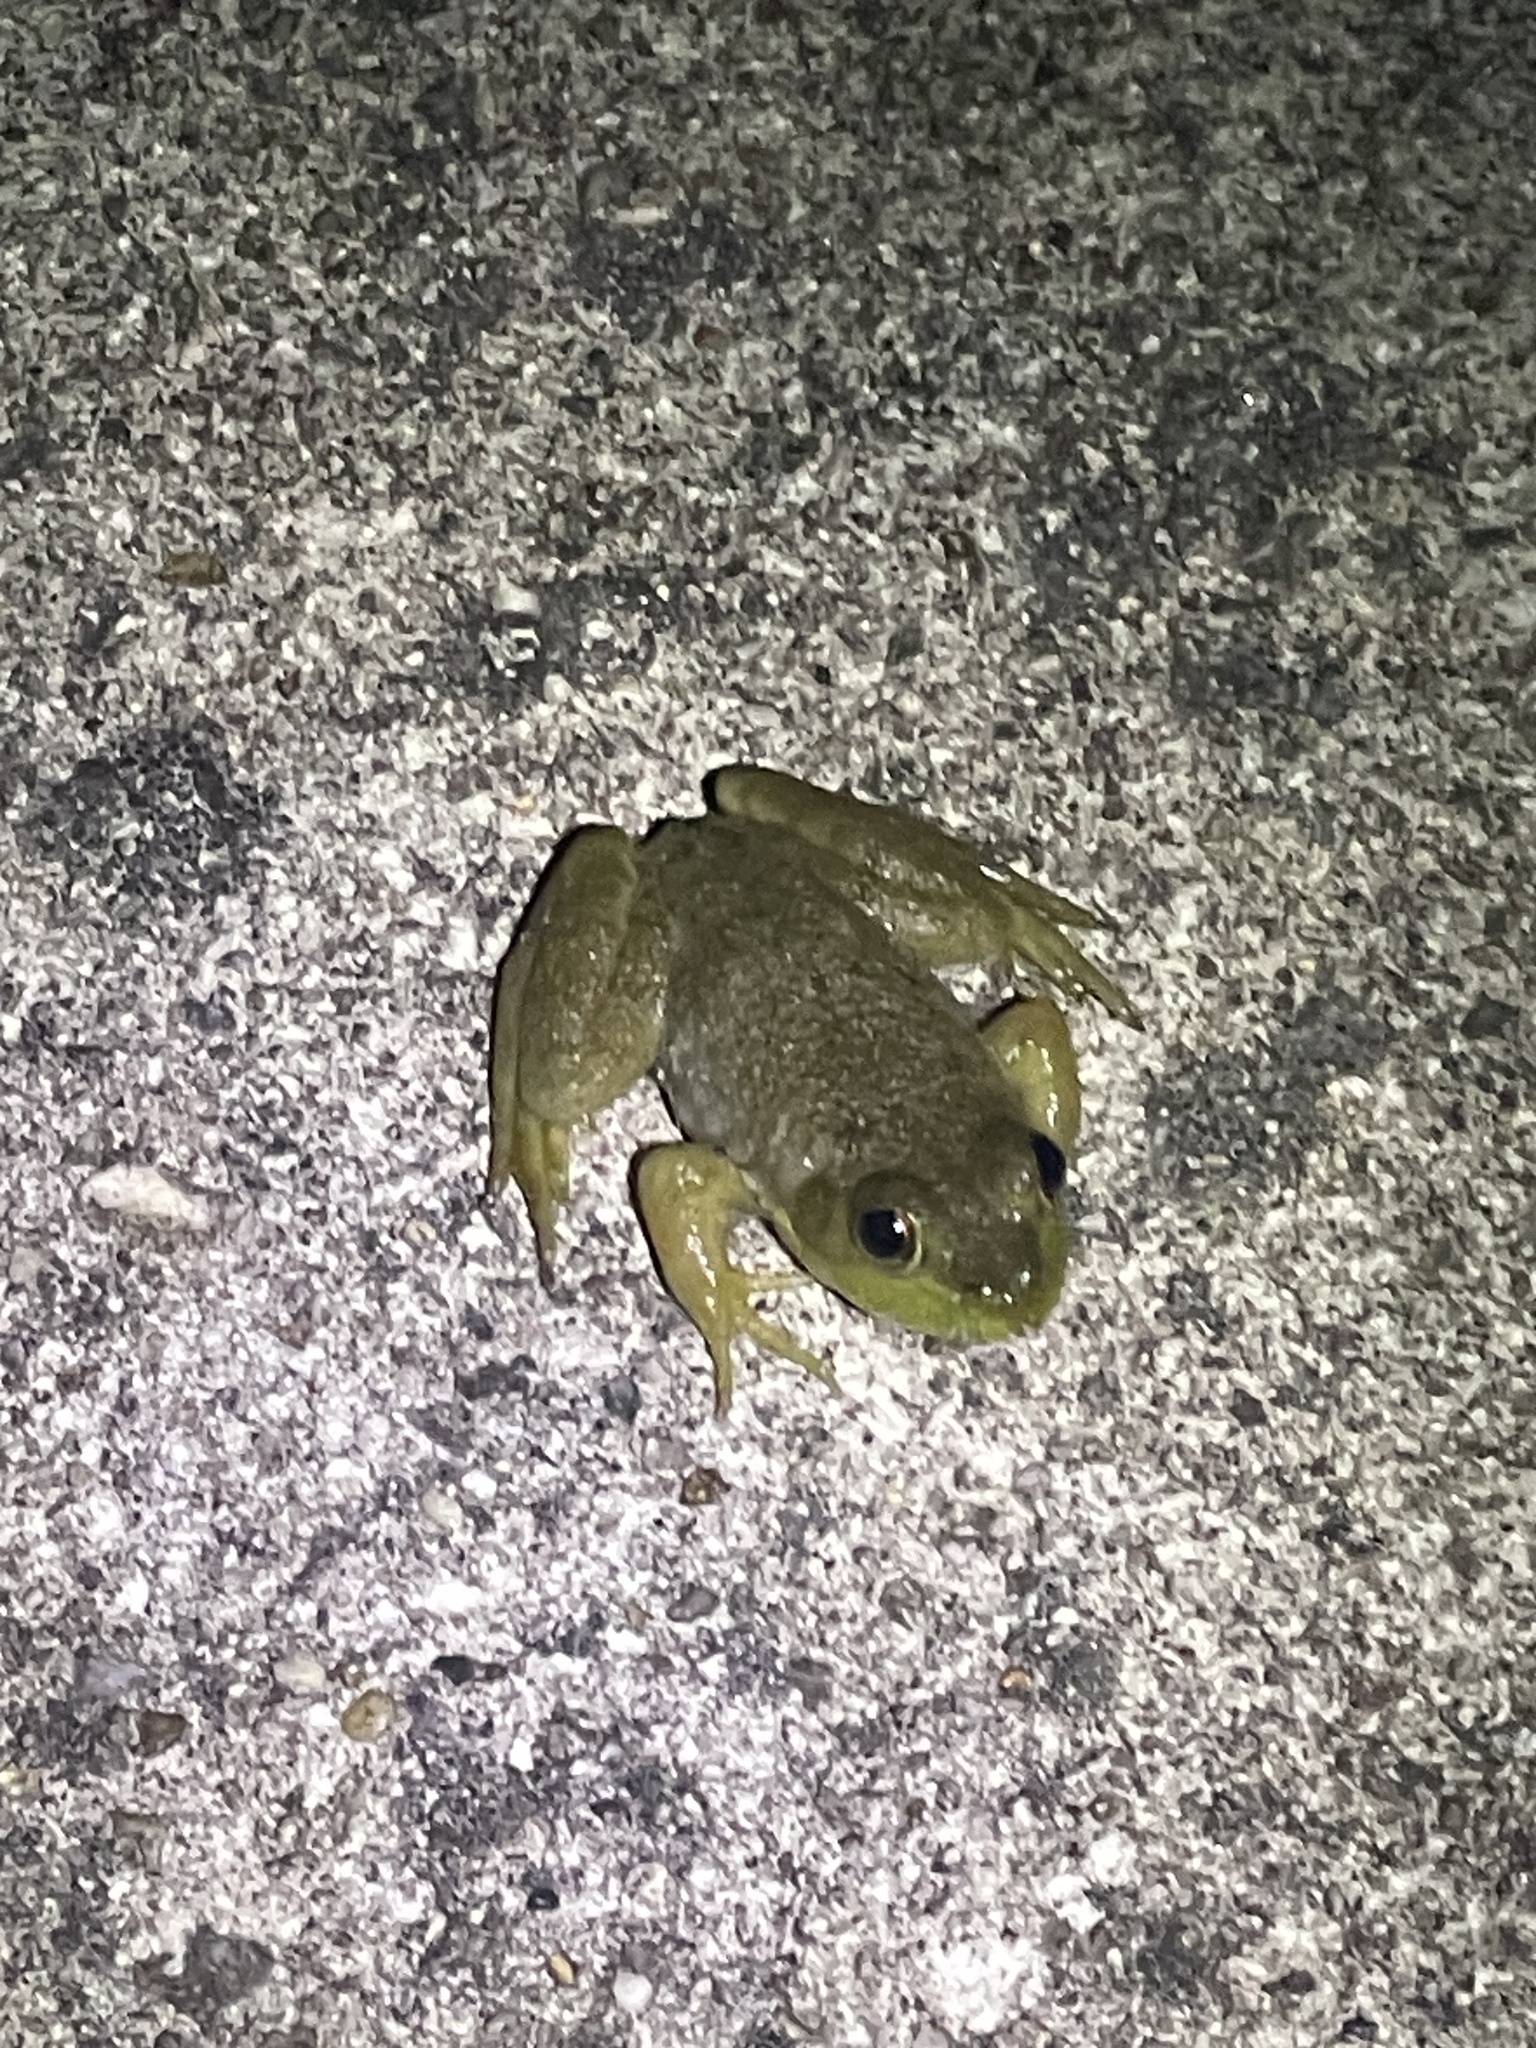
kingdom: Animalia
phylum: Chordata
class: Amphibia
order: Anura
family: Ranidae
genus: Lithobates
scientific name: Lithobates catesbeianus
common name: American bullfrog
